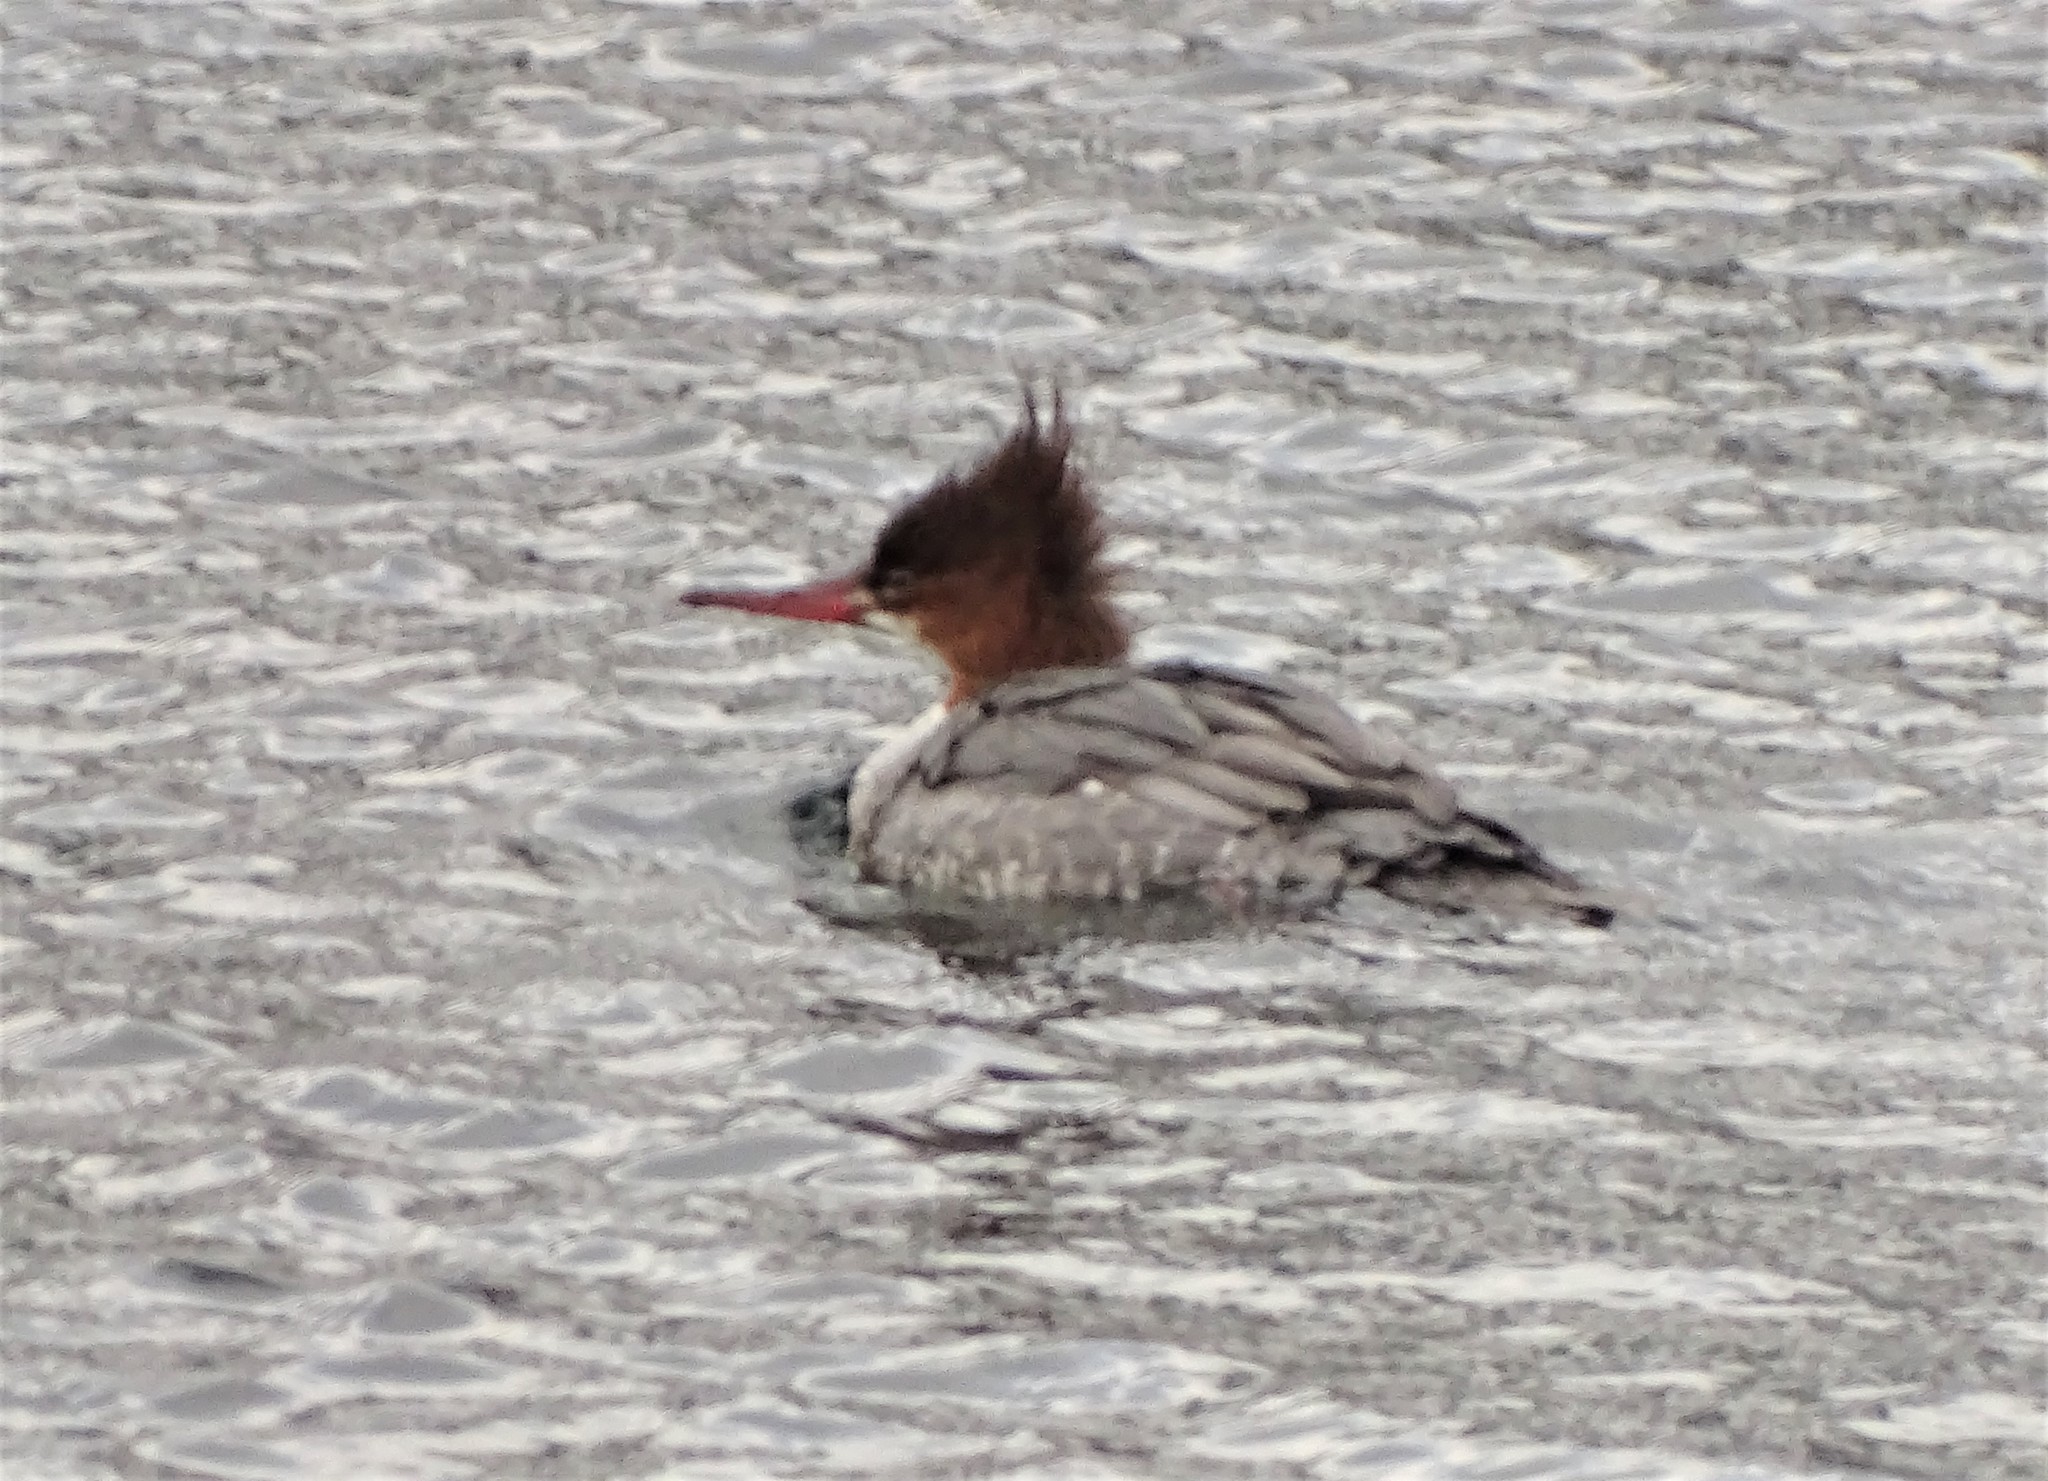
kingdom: Animalia
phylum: Chordata
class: Aves
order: Anseriformes
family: Anatidae
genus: Mergus
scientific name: Mergus merganser
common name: Common merganser
